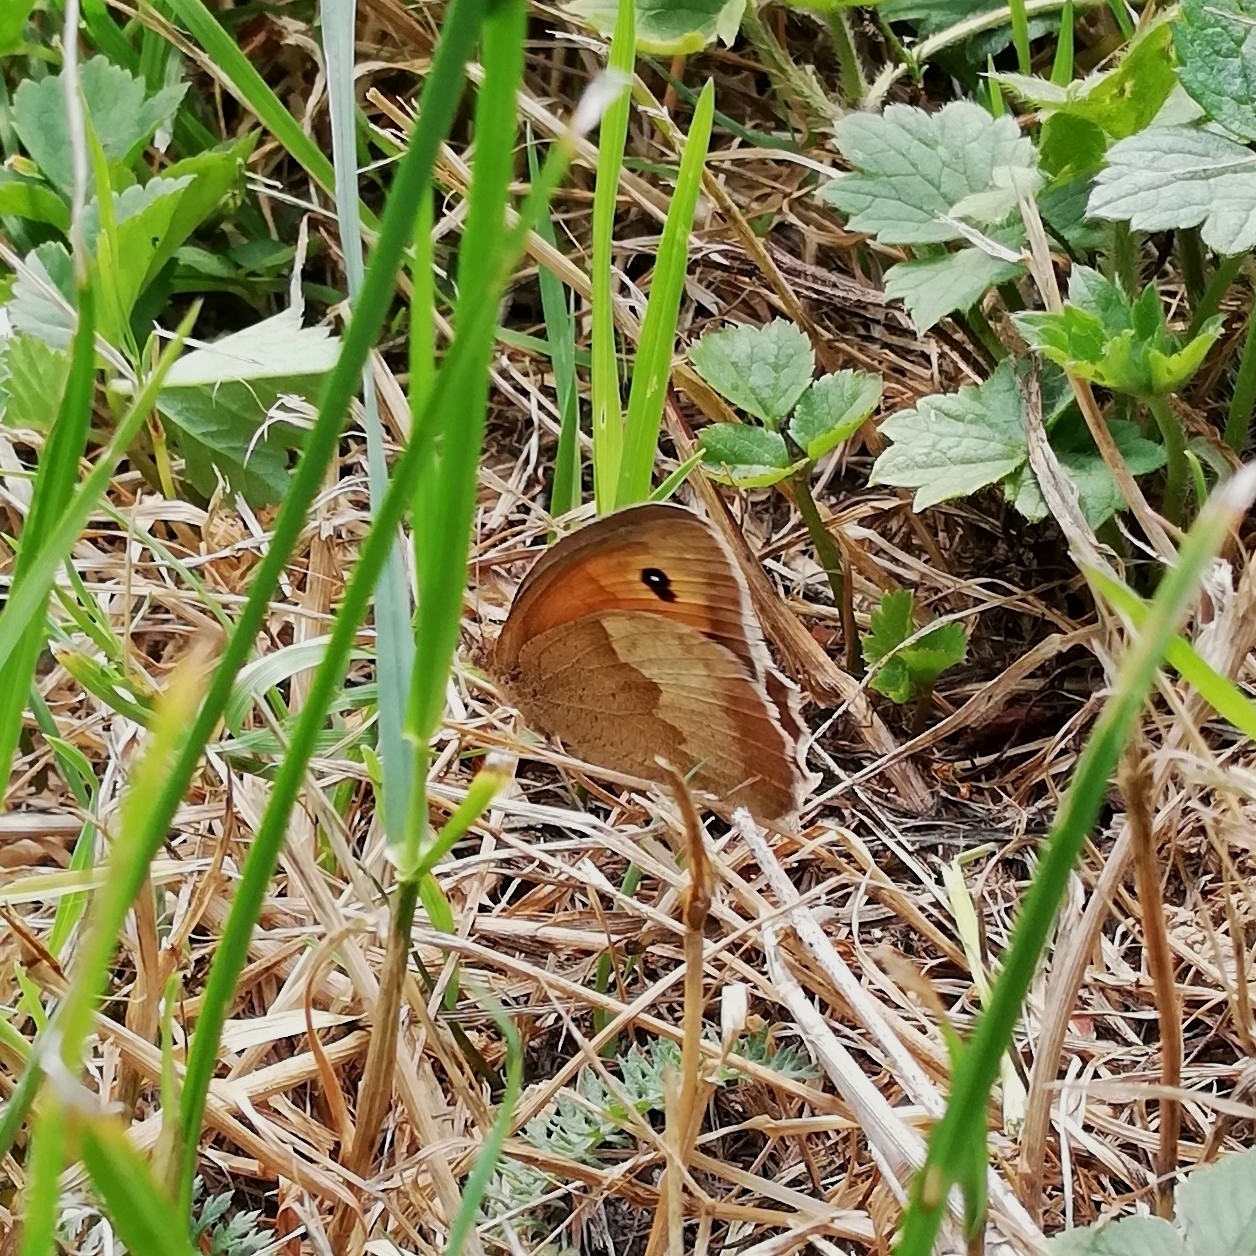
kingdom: Animalia
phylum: Arthropoda
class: Insecta
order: Lepidoptera
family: Nymphalidae
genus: Maniola
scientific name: Maniola jurtina
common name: Meadow brown
